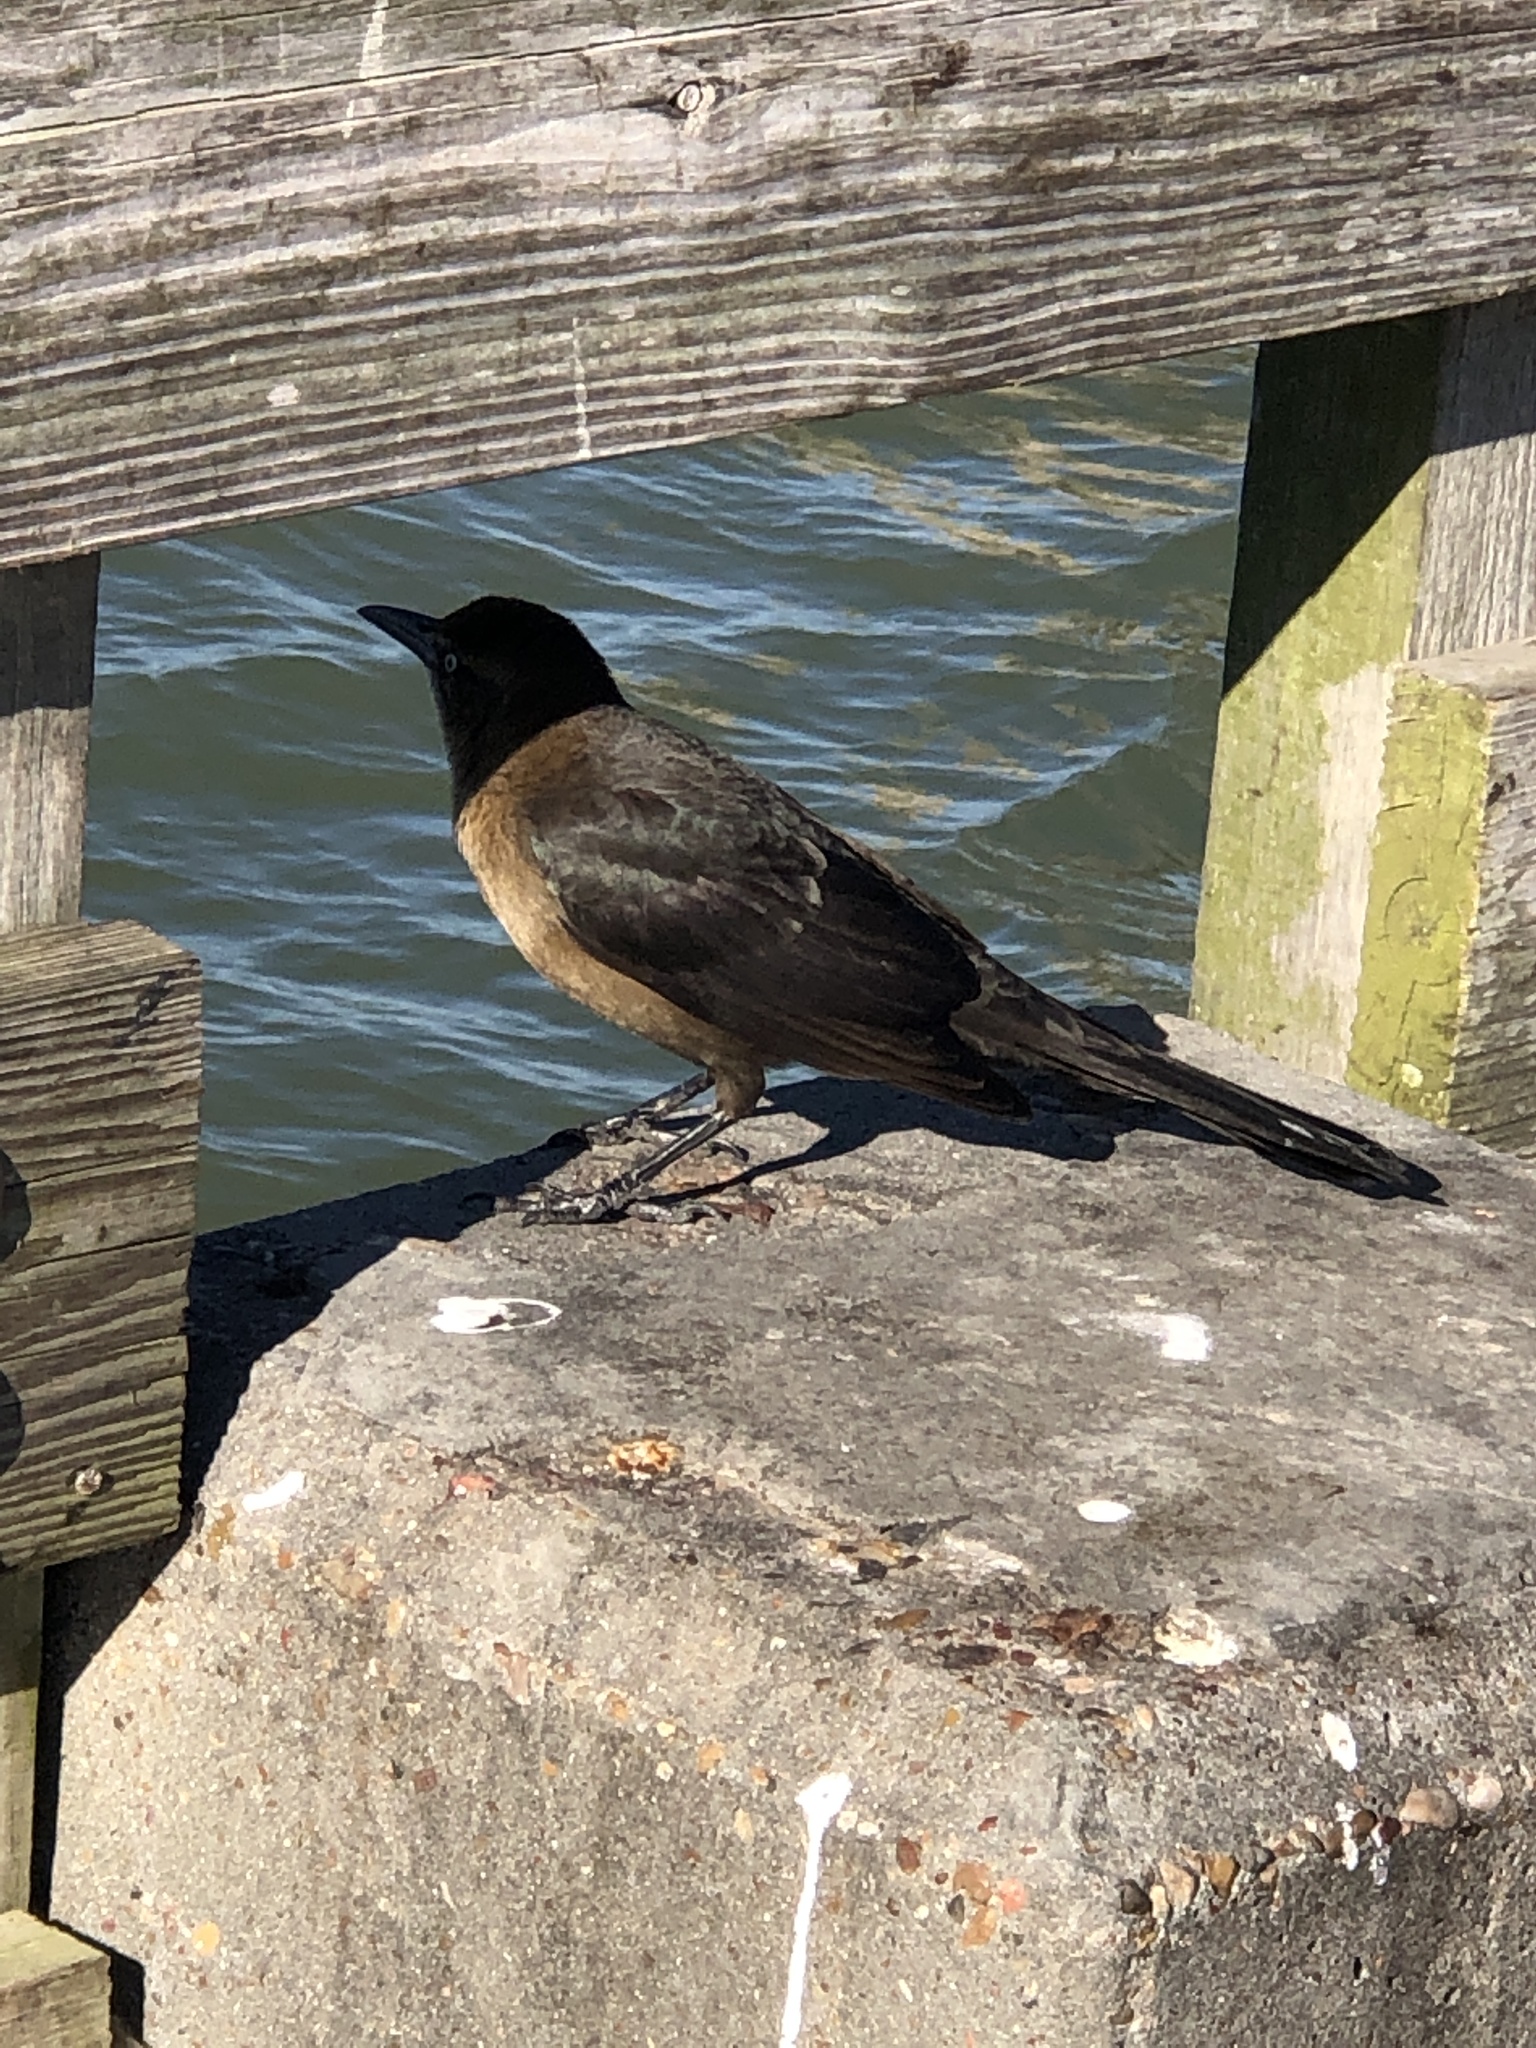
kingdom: Animalia
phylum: Chordata
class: Aves
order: Passeriformes
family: Icteridae
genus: Quiscalus
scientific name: Quiscalus mexicanus
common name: Great-tailed grackle
